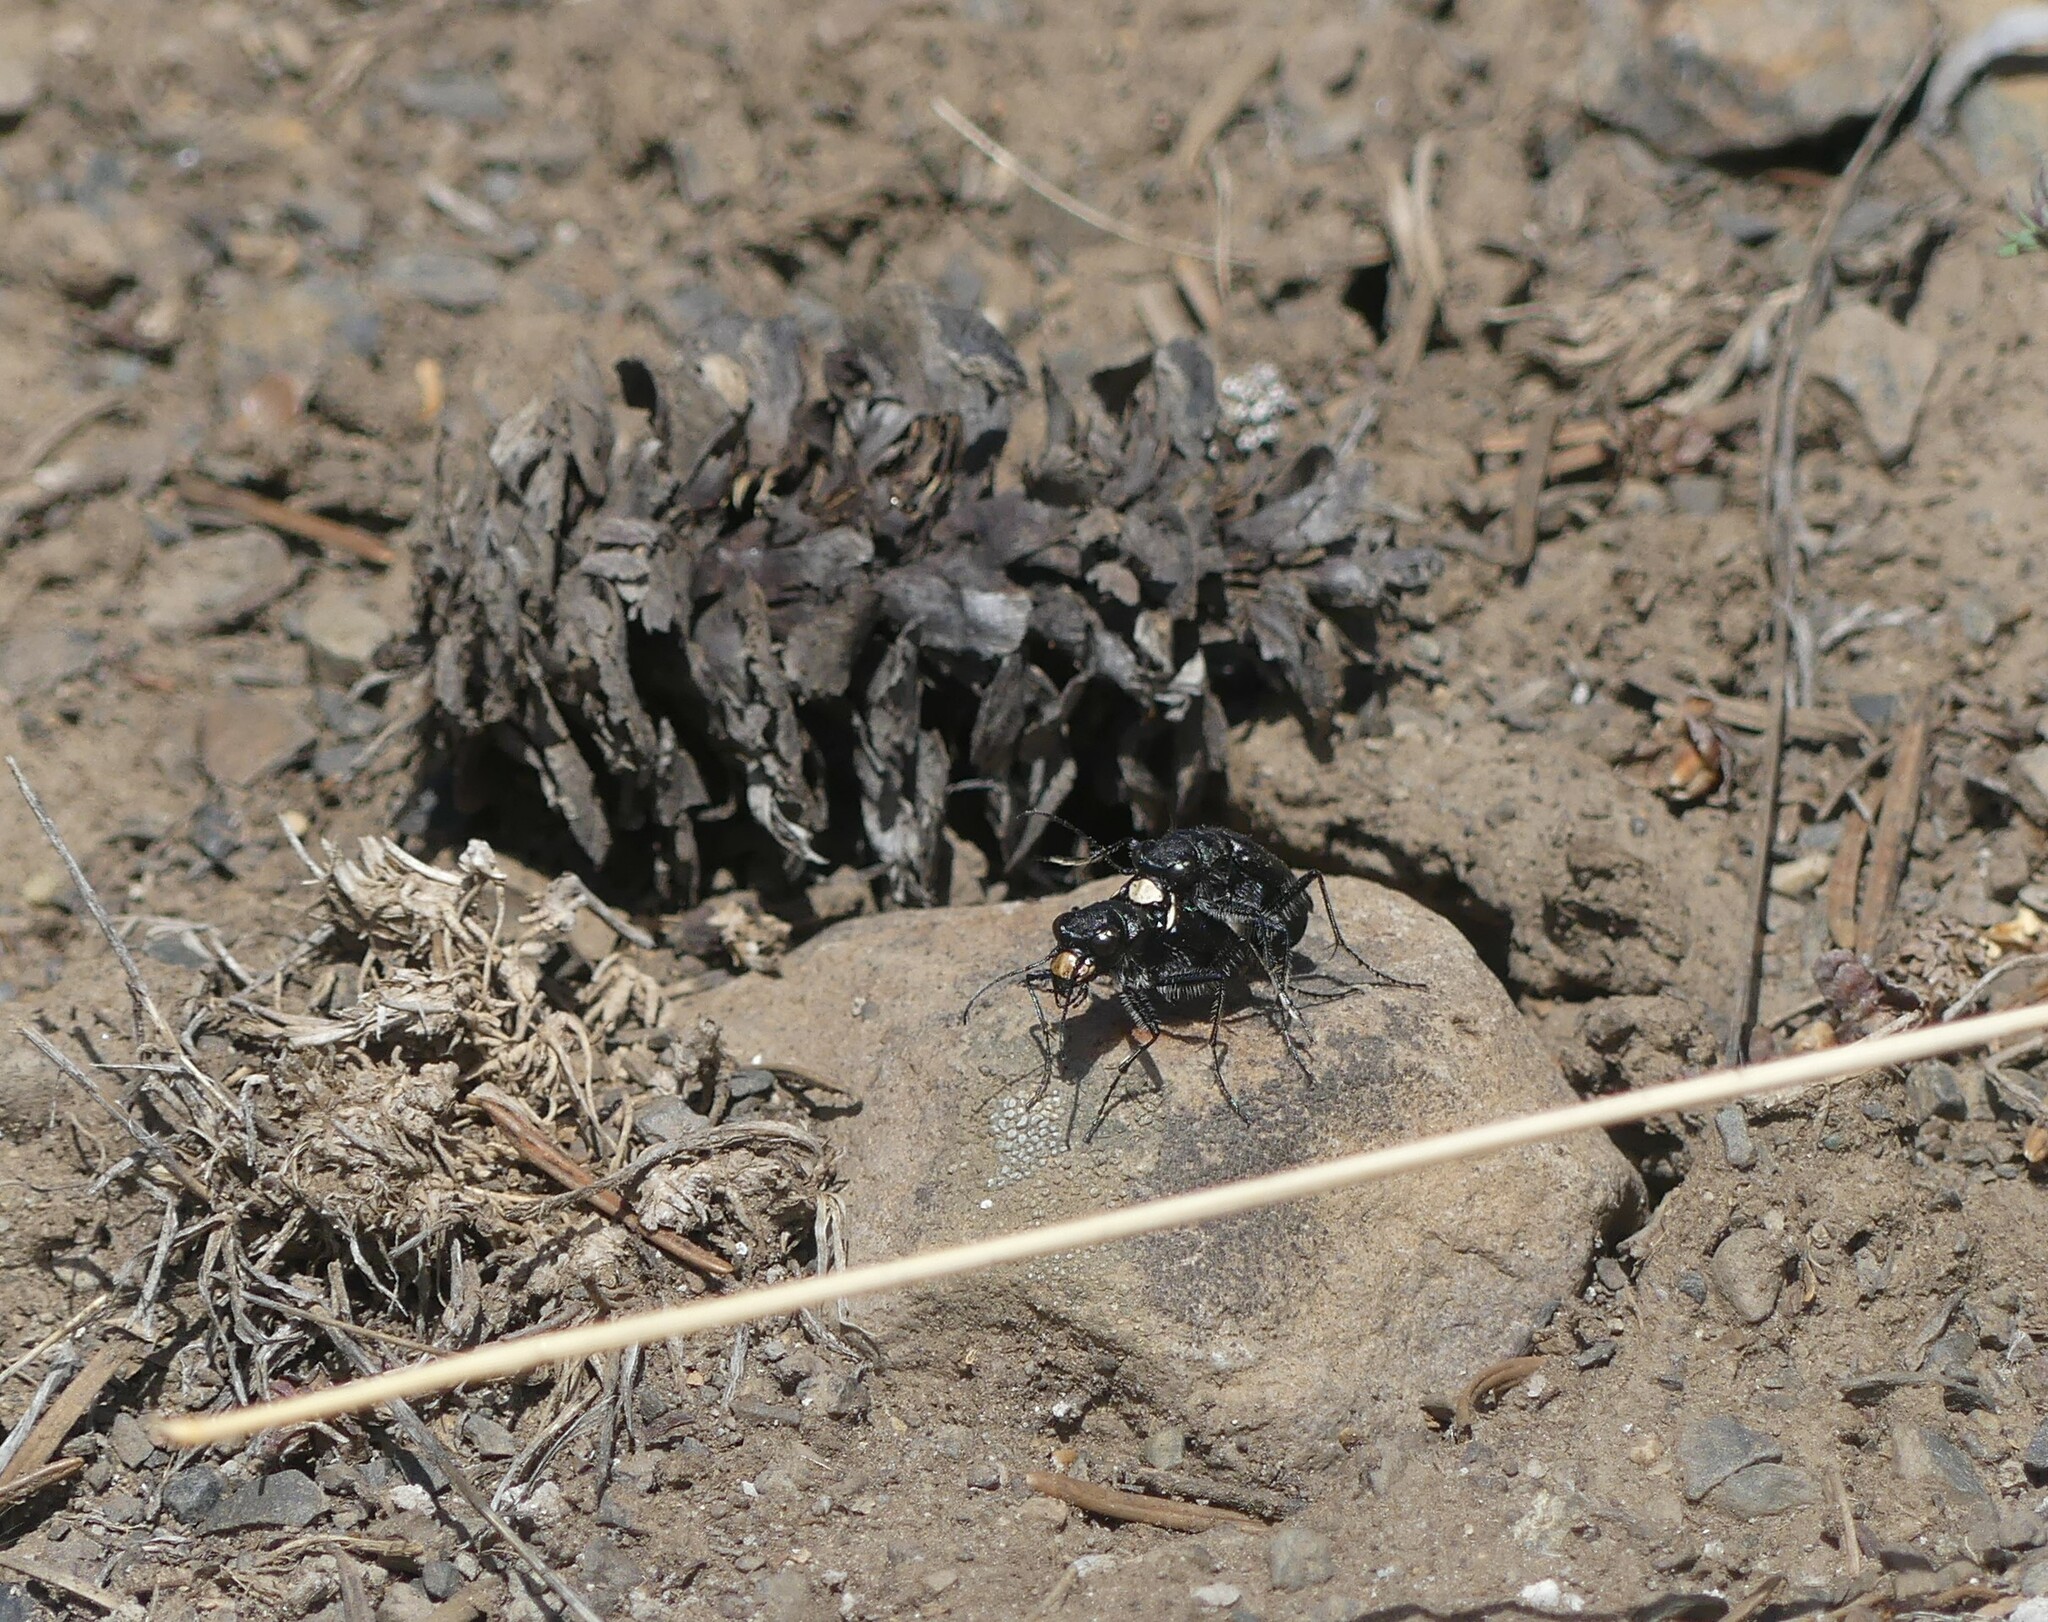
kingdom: Animalia
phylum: Arthropoda
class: Insecta
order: Coleoptera
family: Carabidae
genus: Cicindela
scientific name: Cicindela longilabris
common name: Boreal long-lipped tiger beetle
